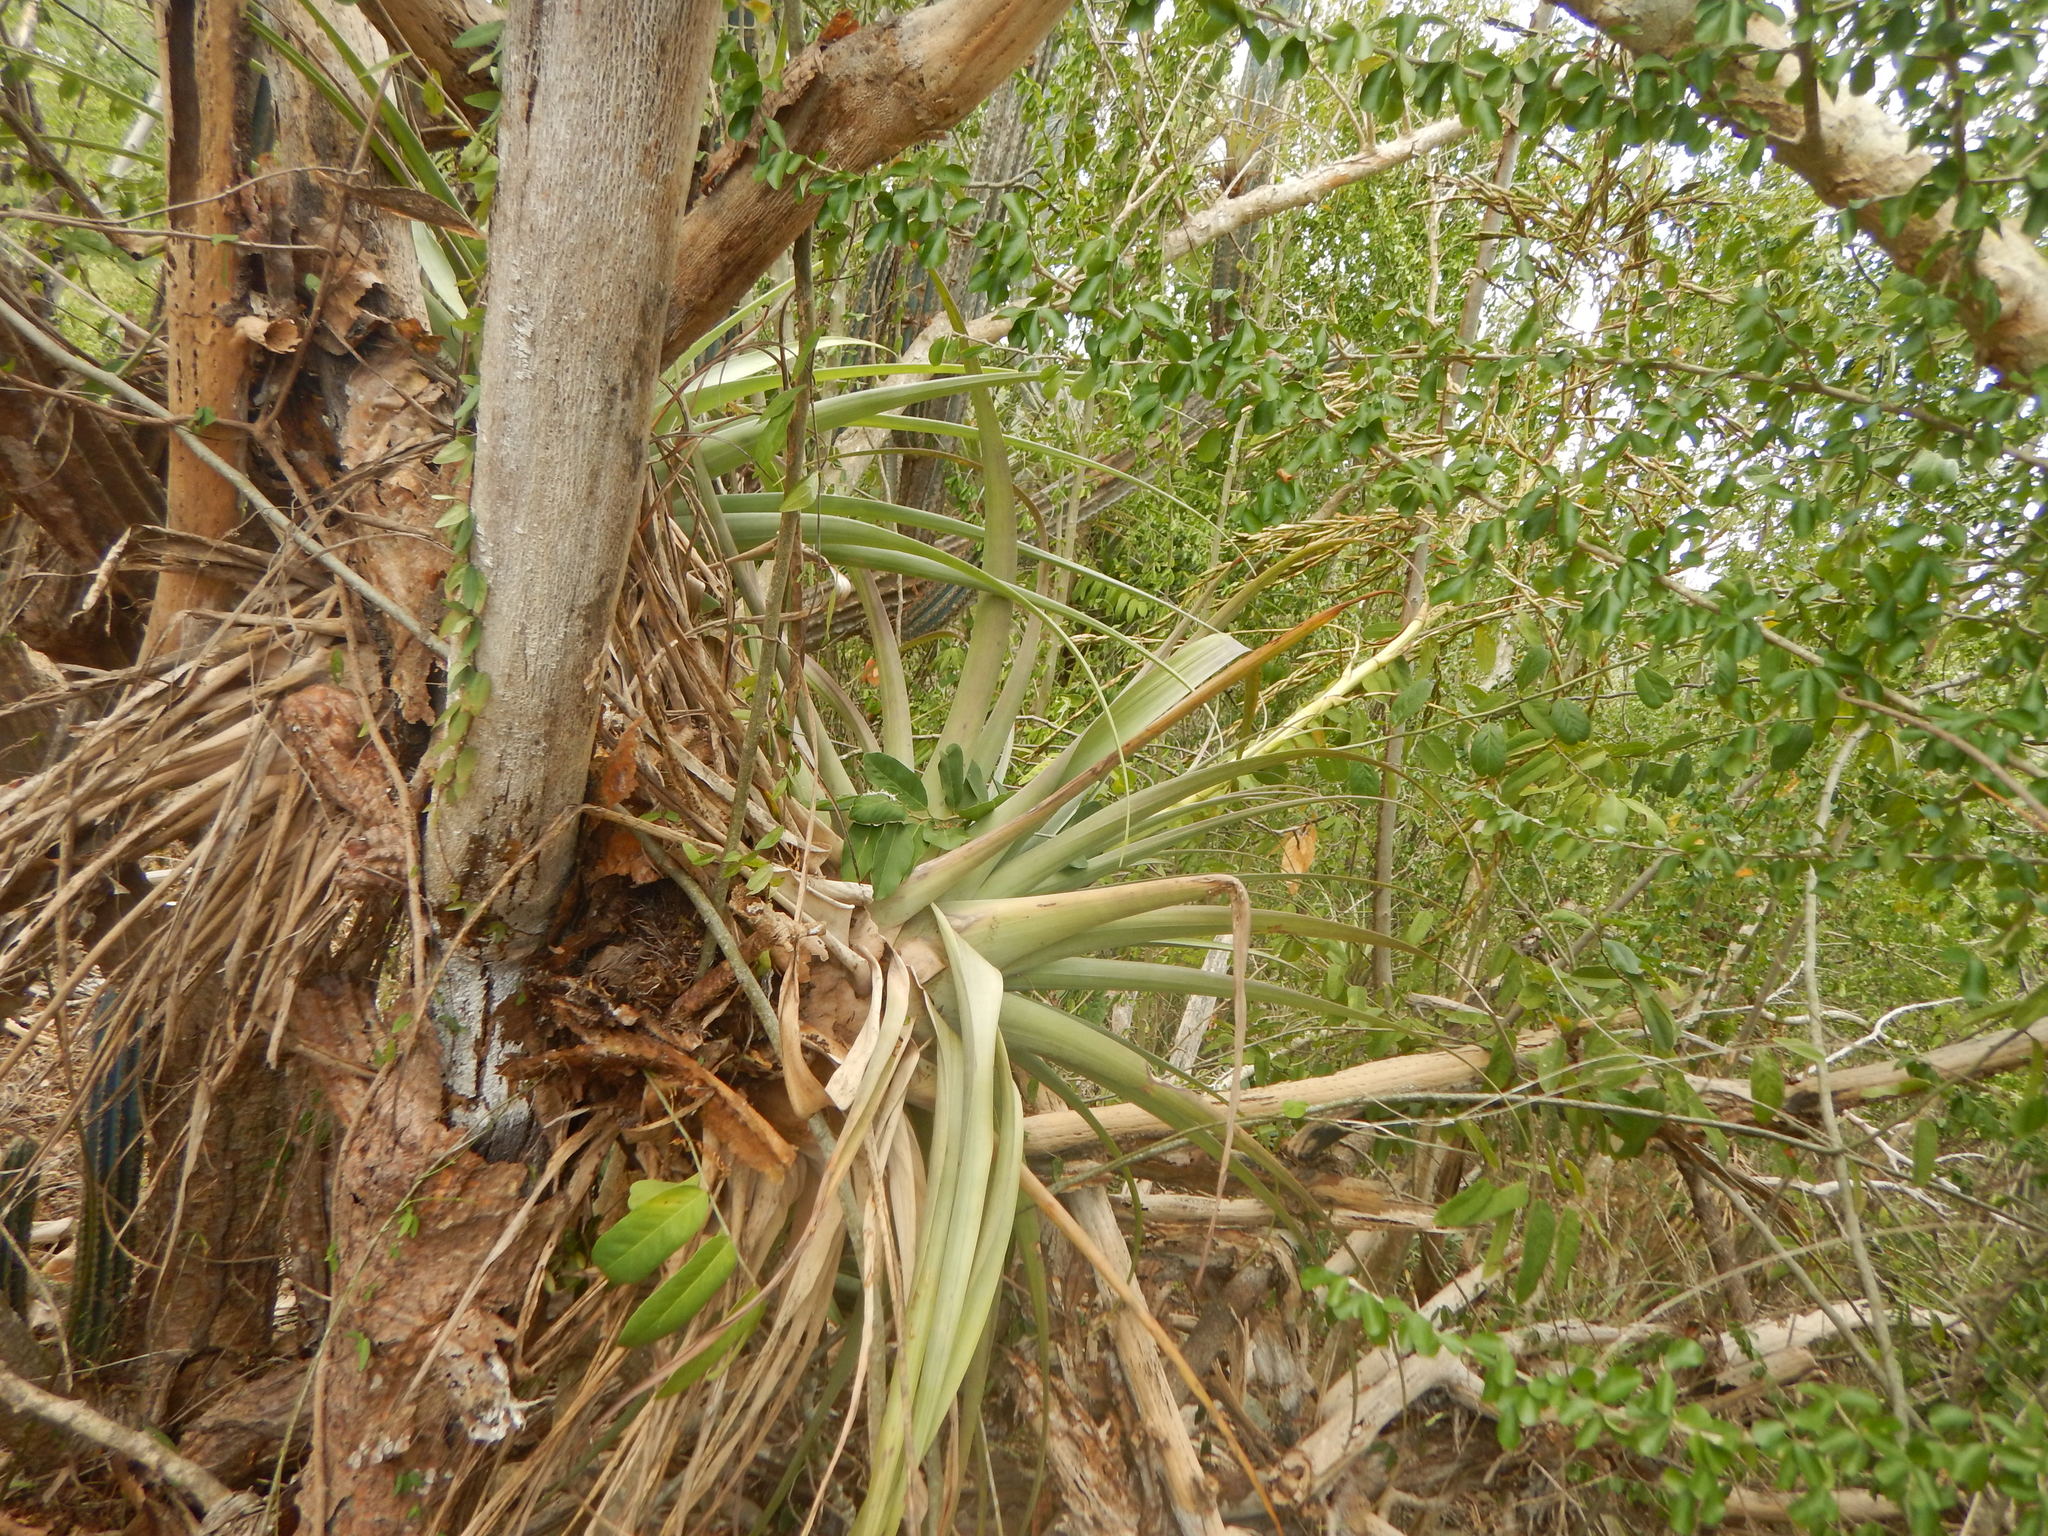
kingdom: Plantae
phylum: Tracheophyta
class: Liliopsida
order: Poales
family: Bromeliaceae
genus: Tillandsia
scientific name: Tillandsia utriculata
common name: Wild pine
